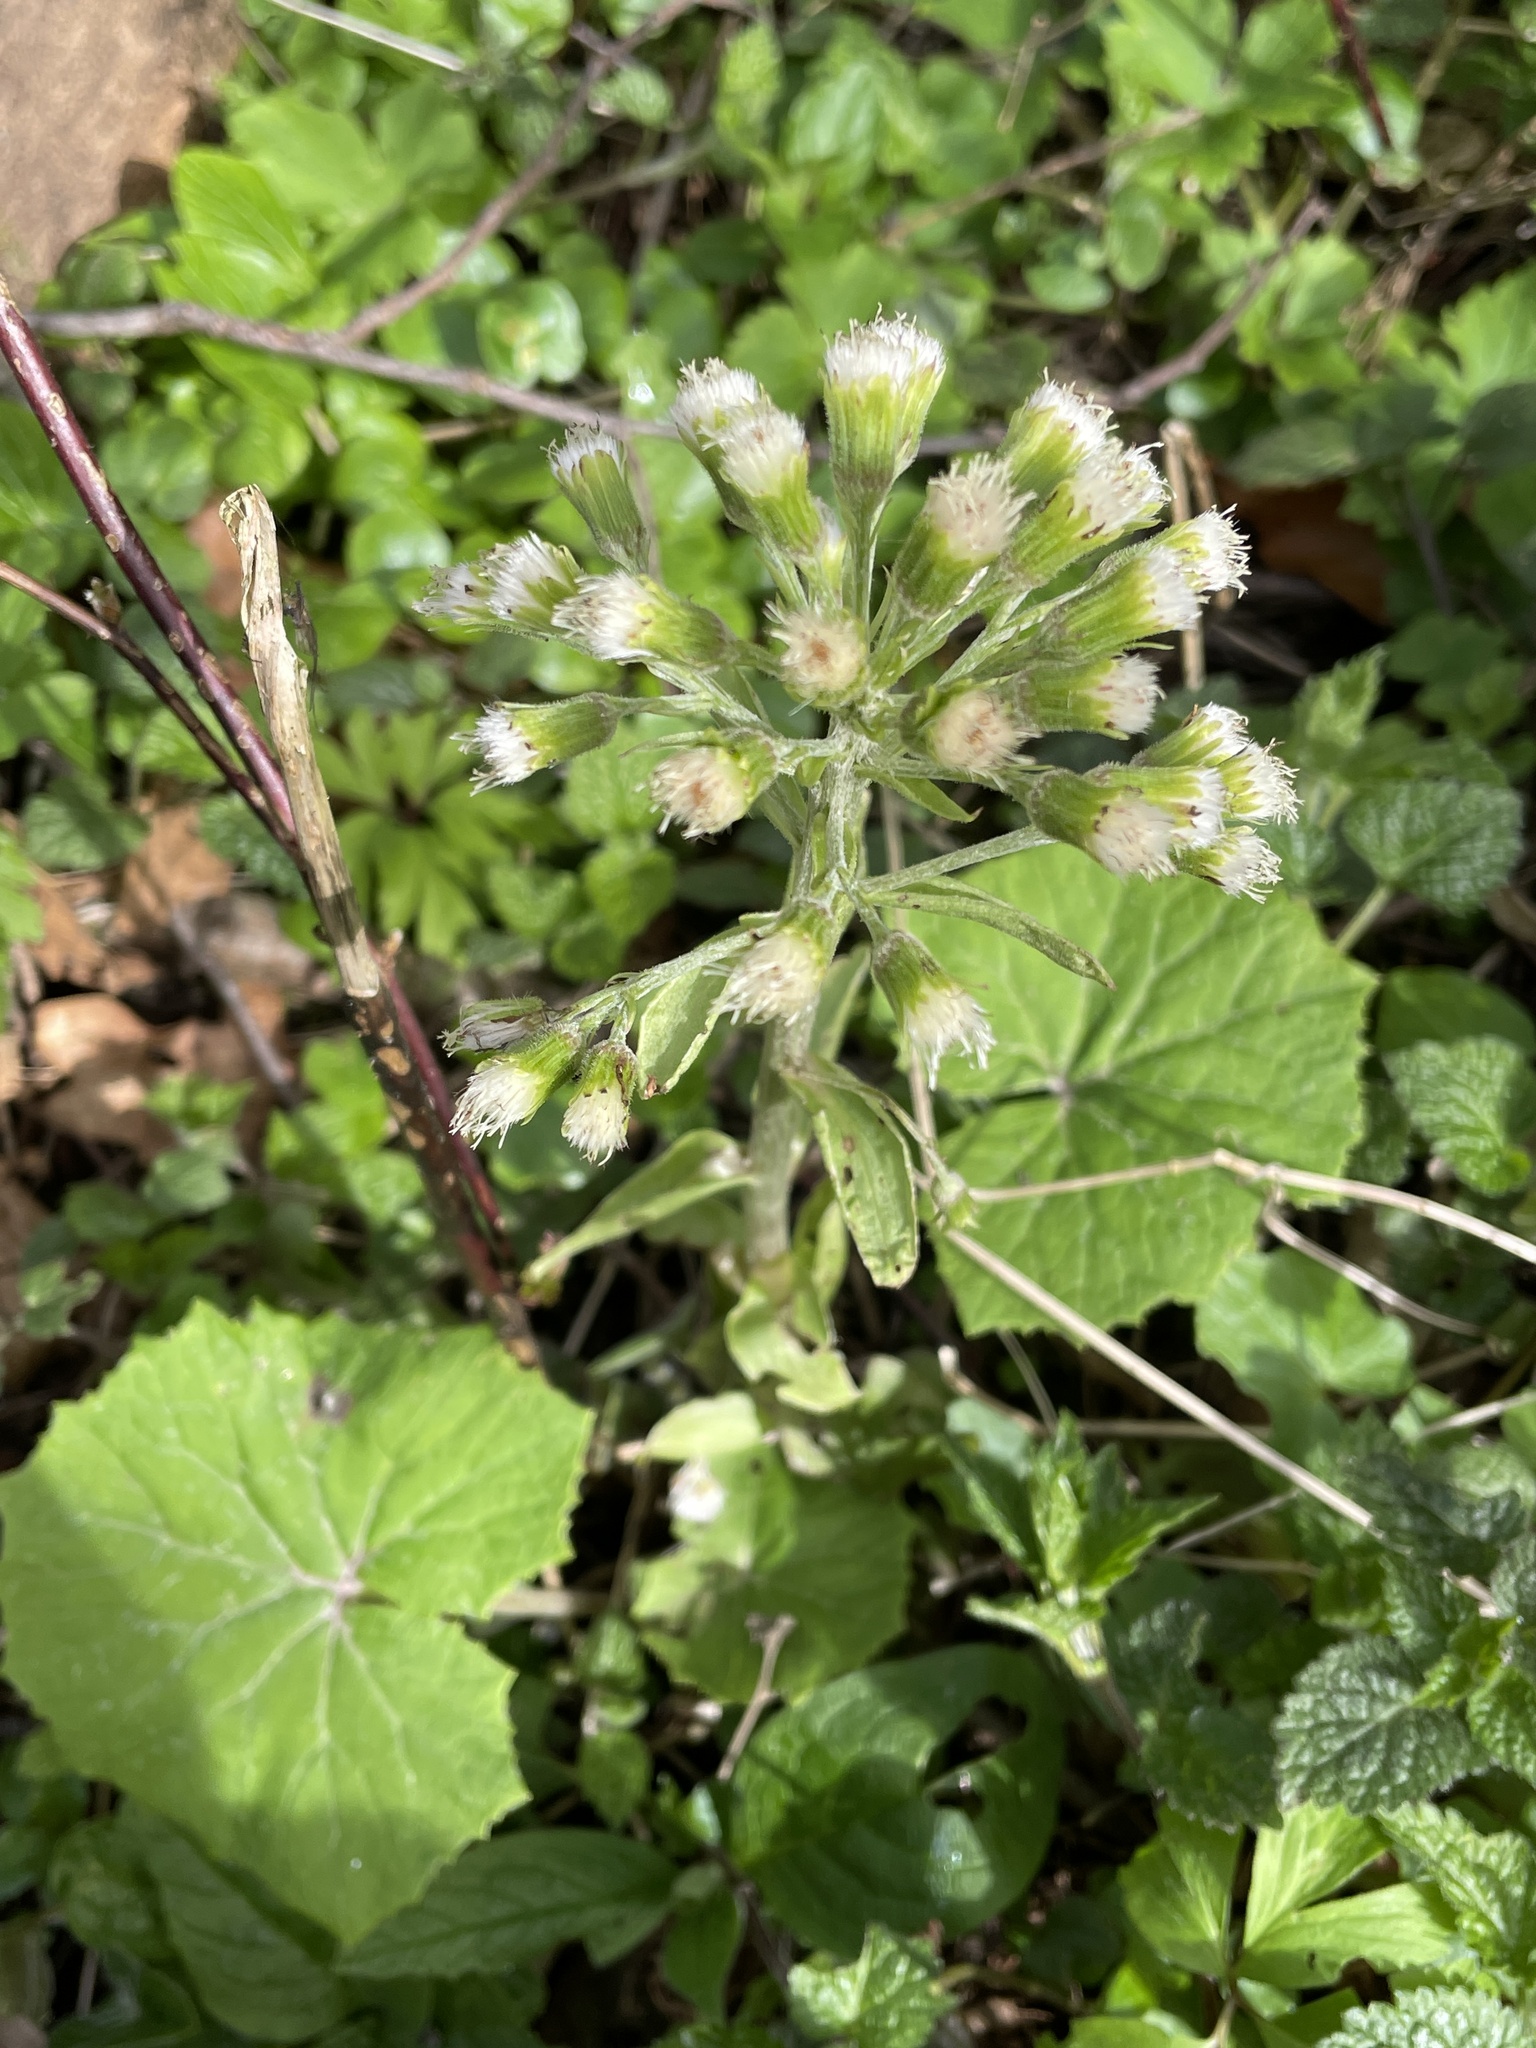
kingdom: Plantae
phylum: Tracheophyta
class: Magnoliopsida
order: Asterales
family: Asteraceae
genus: Petasites
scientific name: Petasites albus
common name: White butterbur
